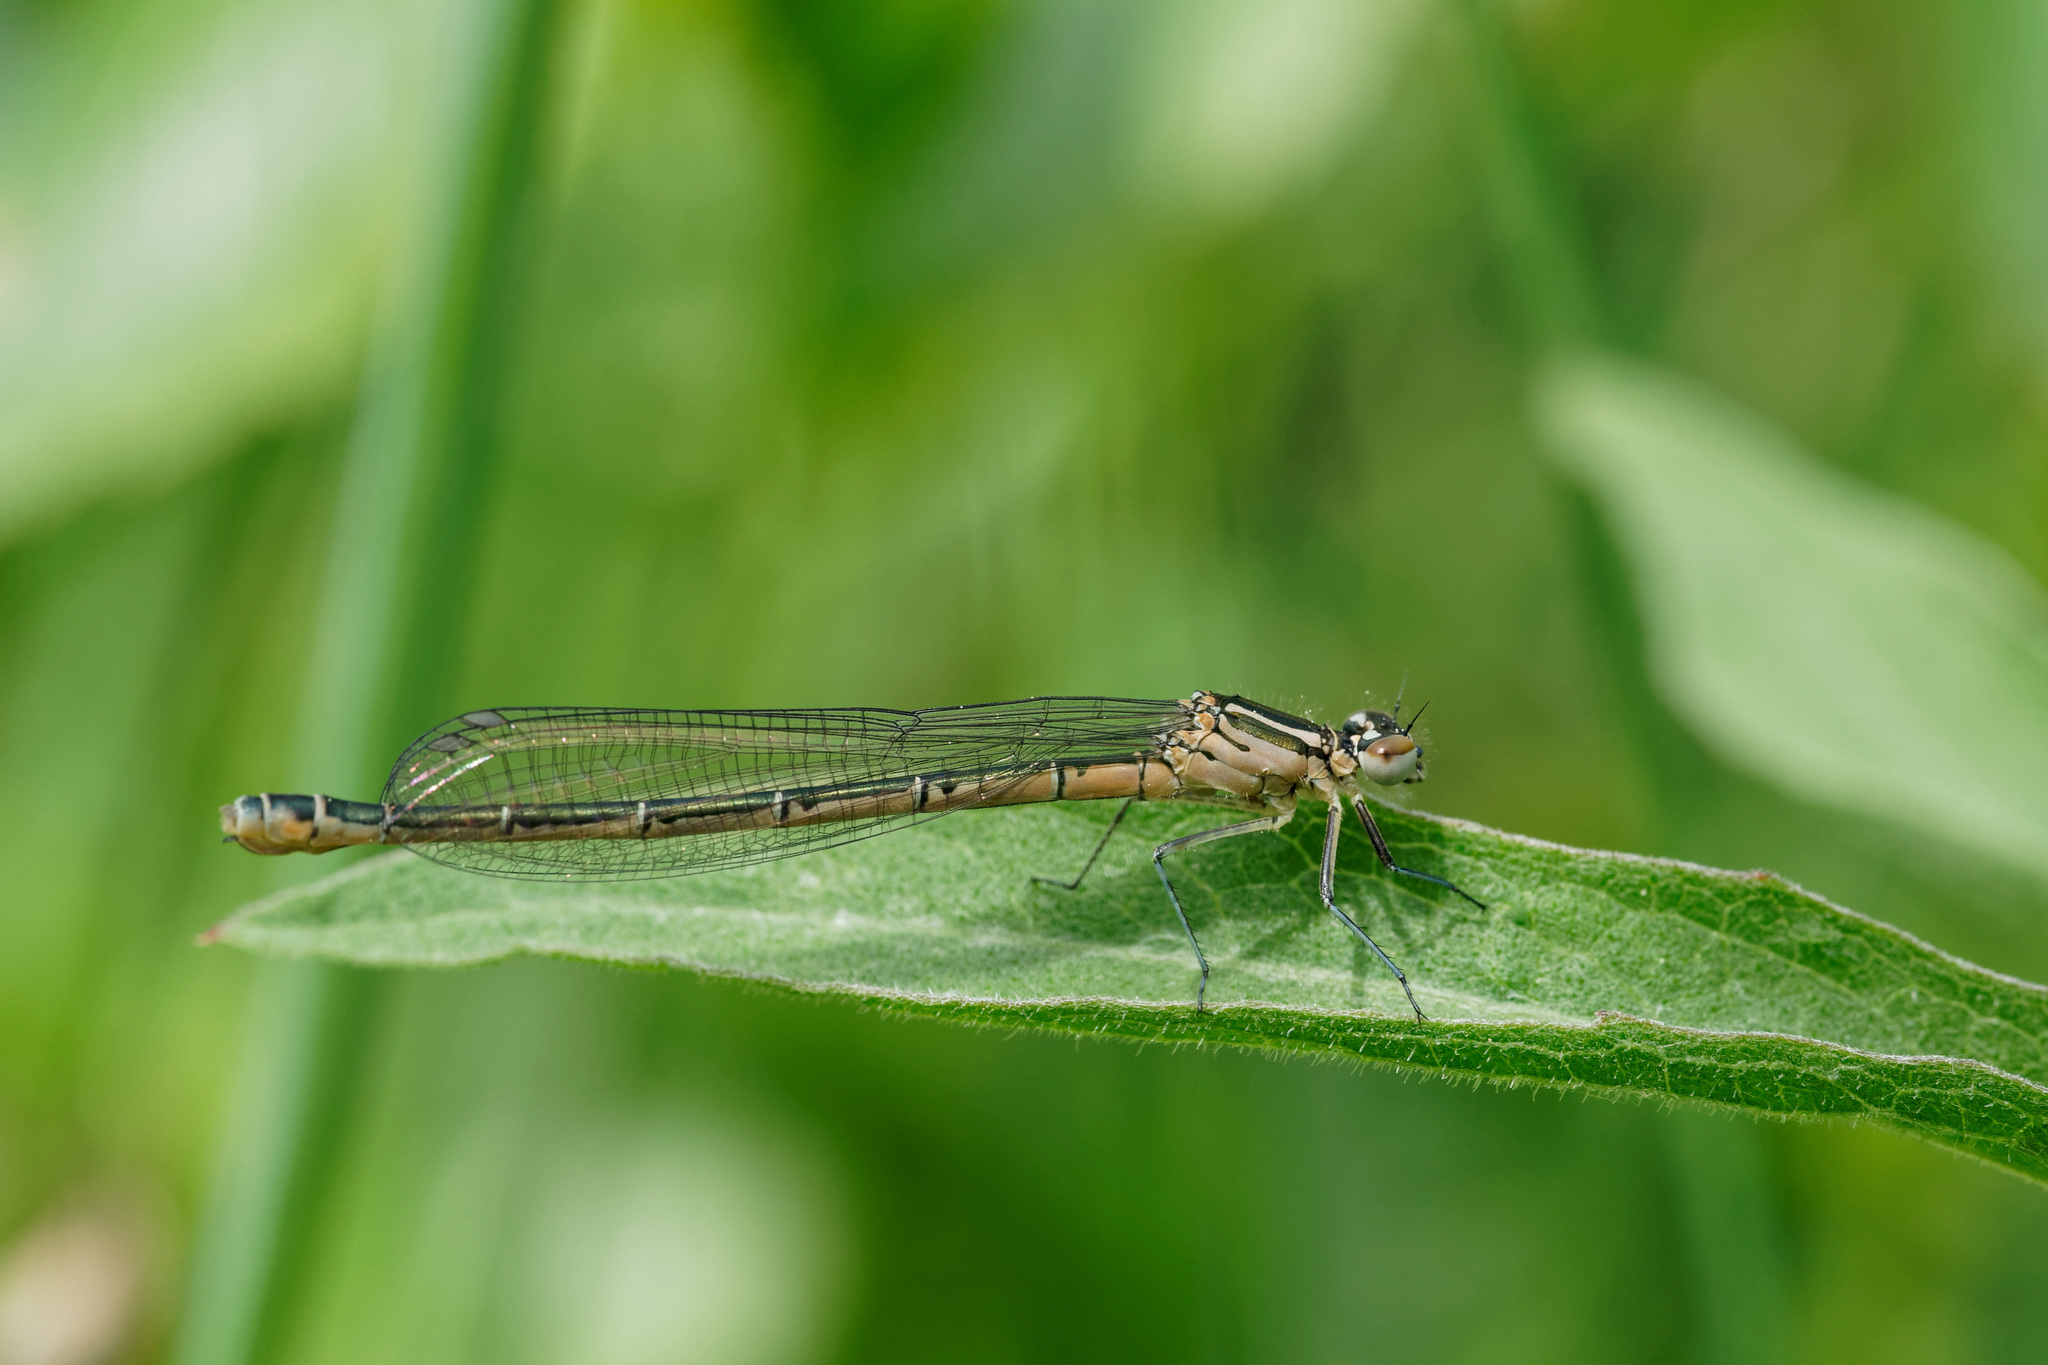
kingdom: Animalia
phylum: Arthropoda
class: Insecta
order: Odonata
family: Coenagrionidae
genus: Coenagrion
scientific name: Coenagrion hastulatum
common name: Spearhead bluet
